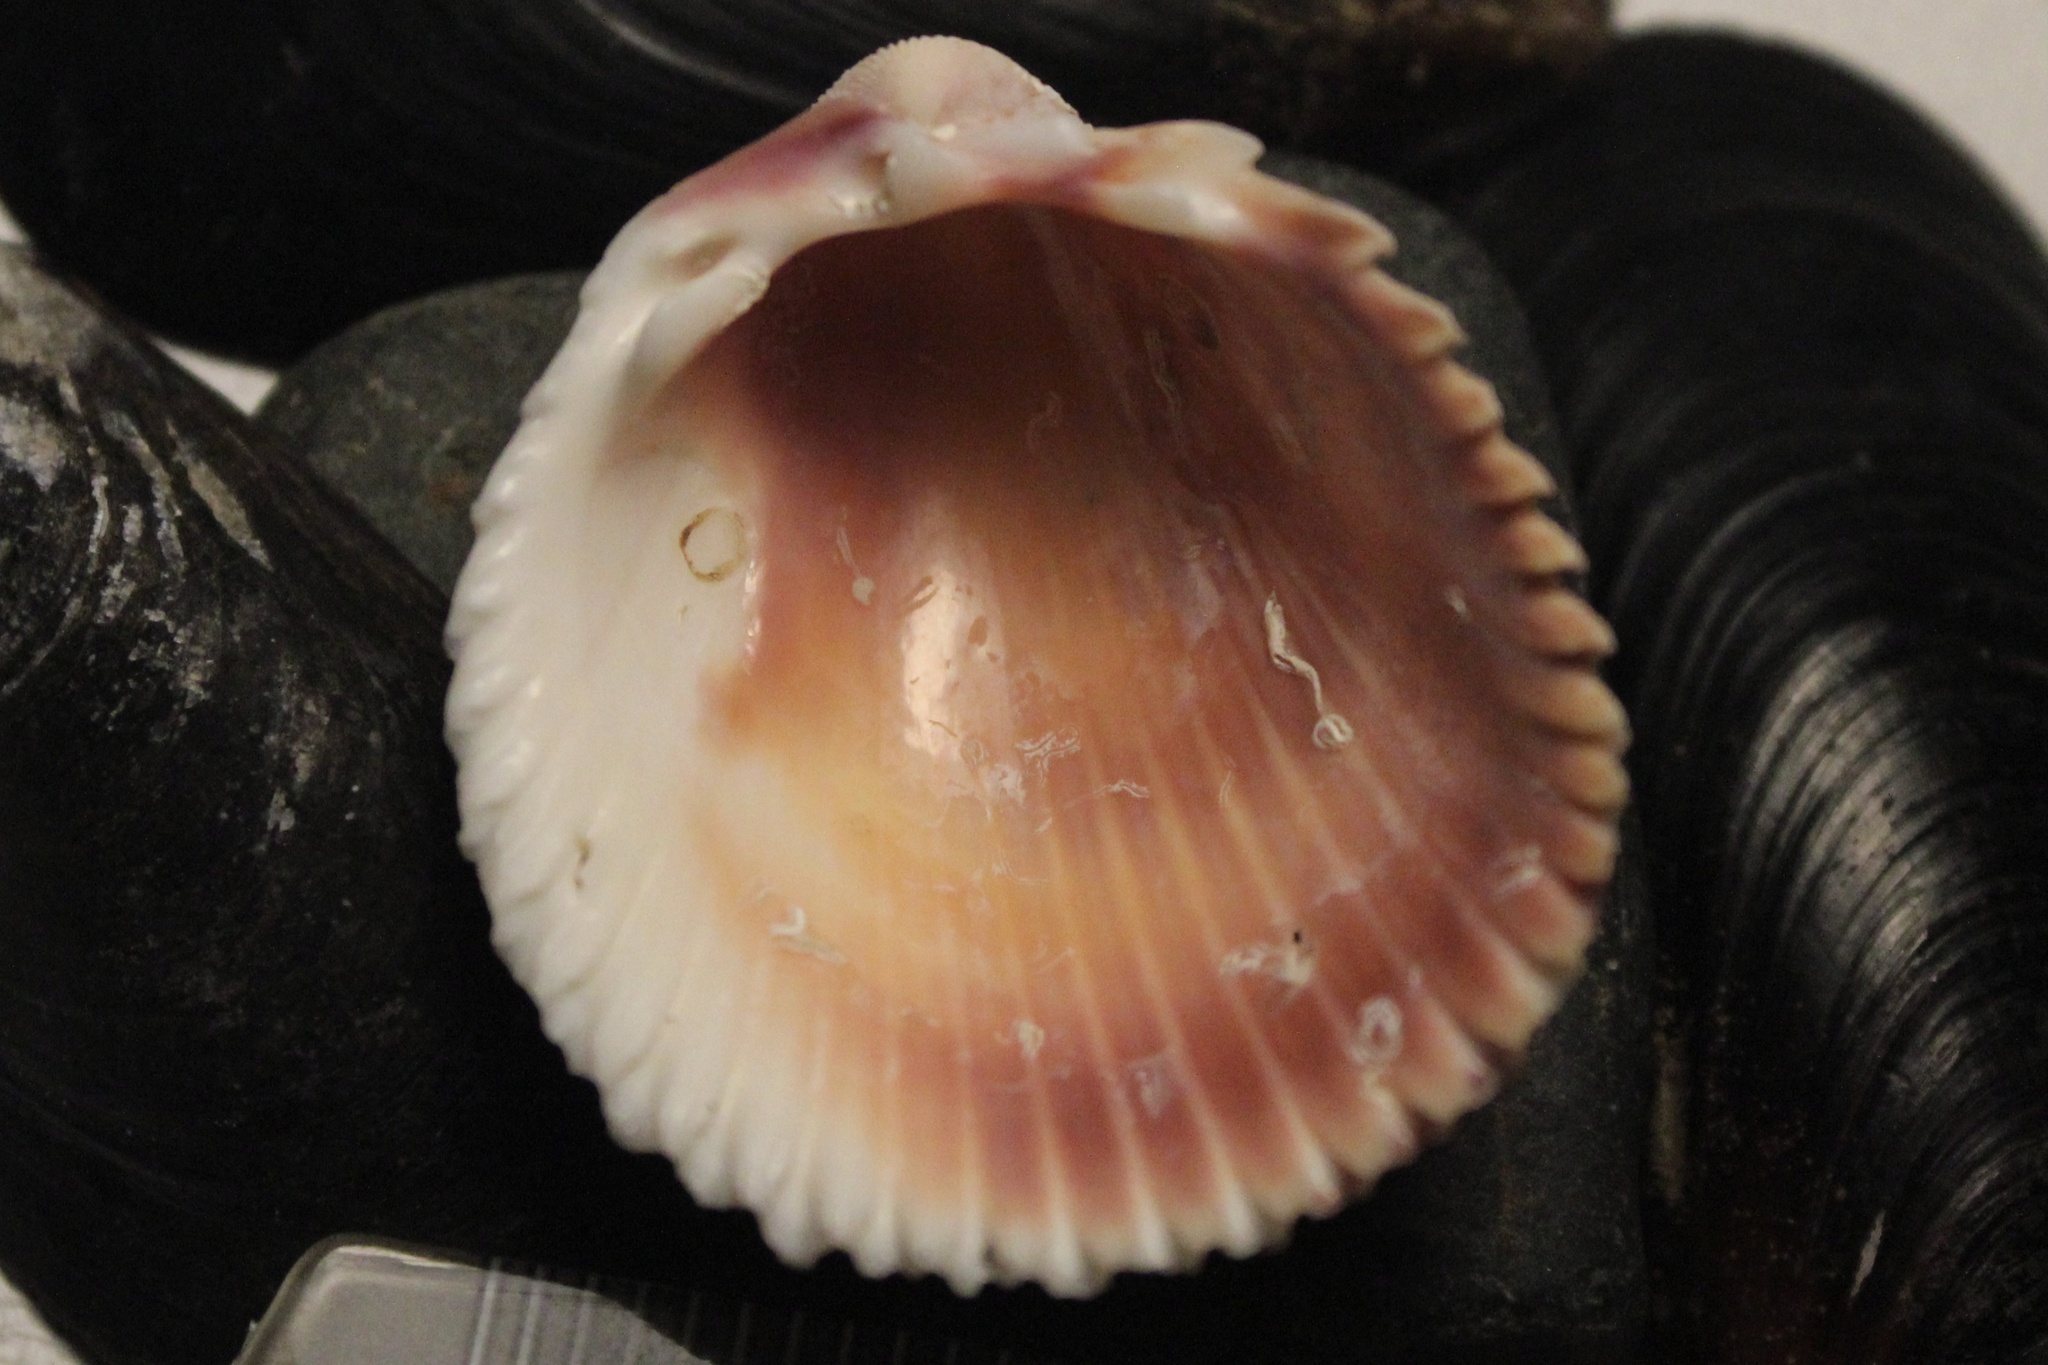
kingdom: Animalia
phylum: Mollusca
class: Bivalvia
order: Cardiida
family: Cardiidae
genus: Trachycardium
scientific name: Trachycardium egmontianum
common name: Florida pricklycockle
